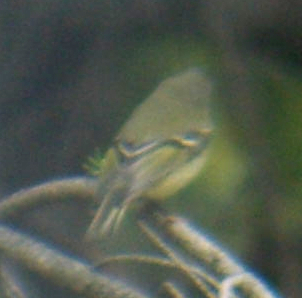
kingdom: Animalia
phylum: Chordata
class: Aves
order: Passeriformes
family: Regulidae
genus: Regulus
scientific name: Regulus calendula
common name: Ruby-crowned kinglet
